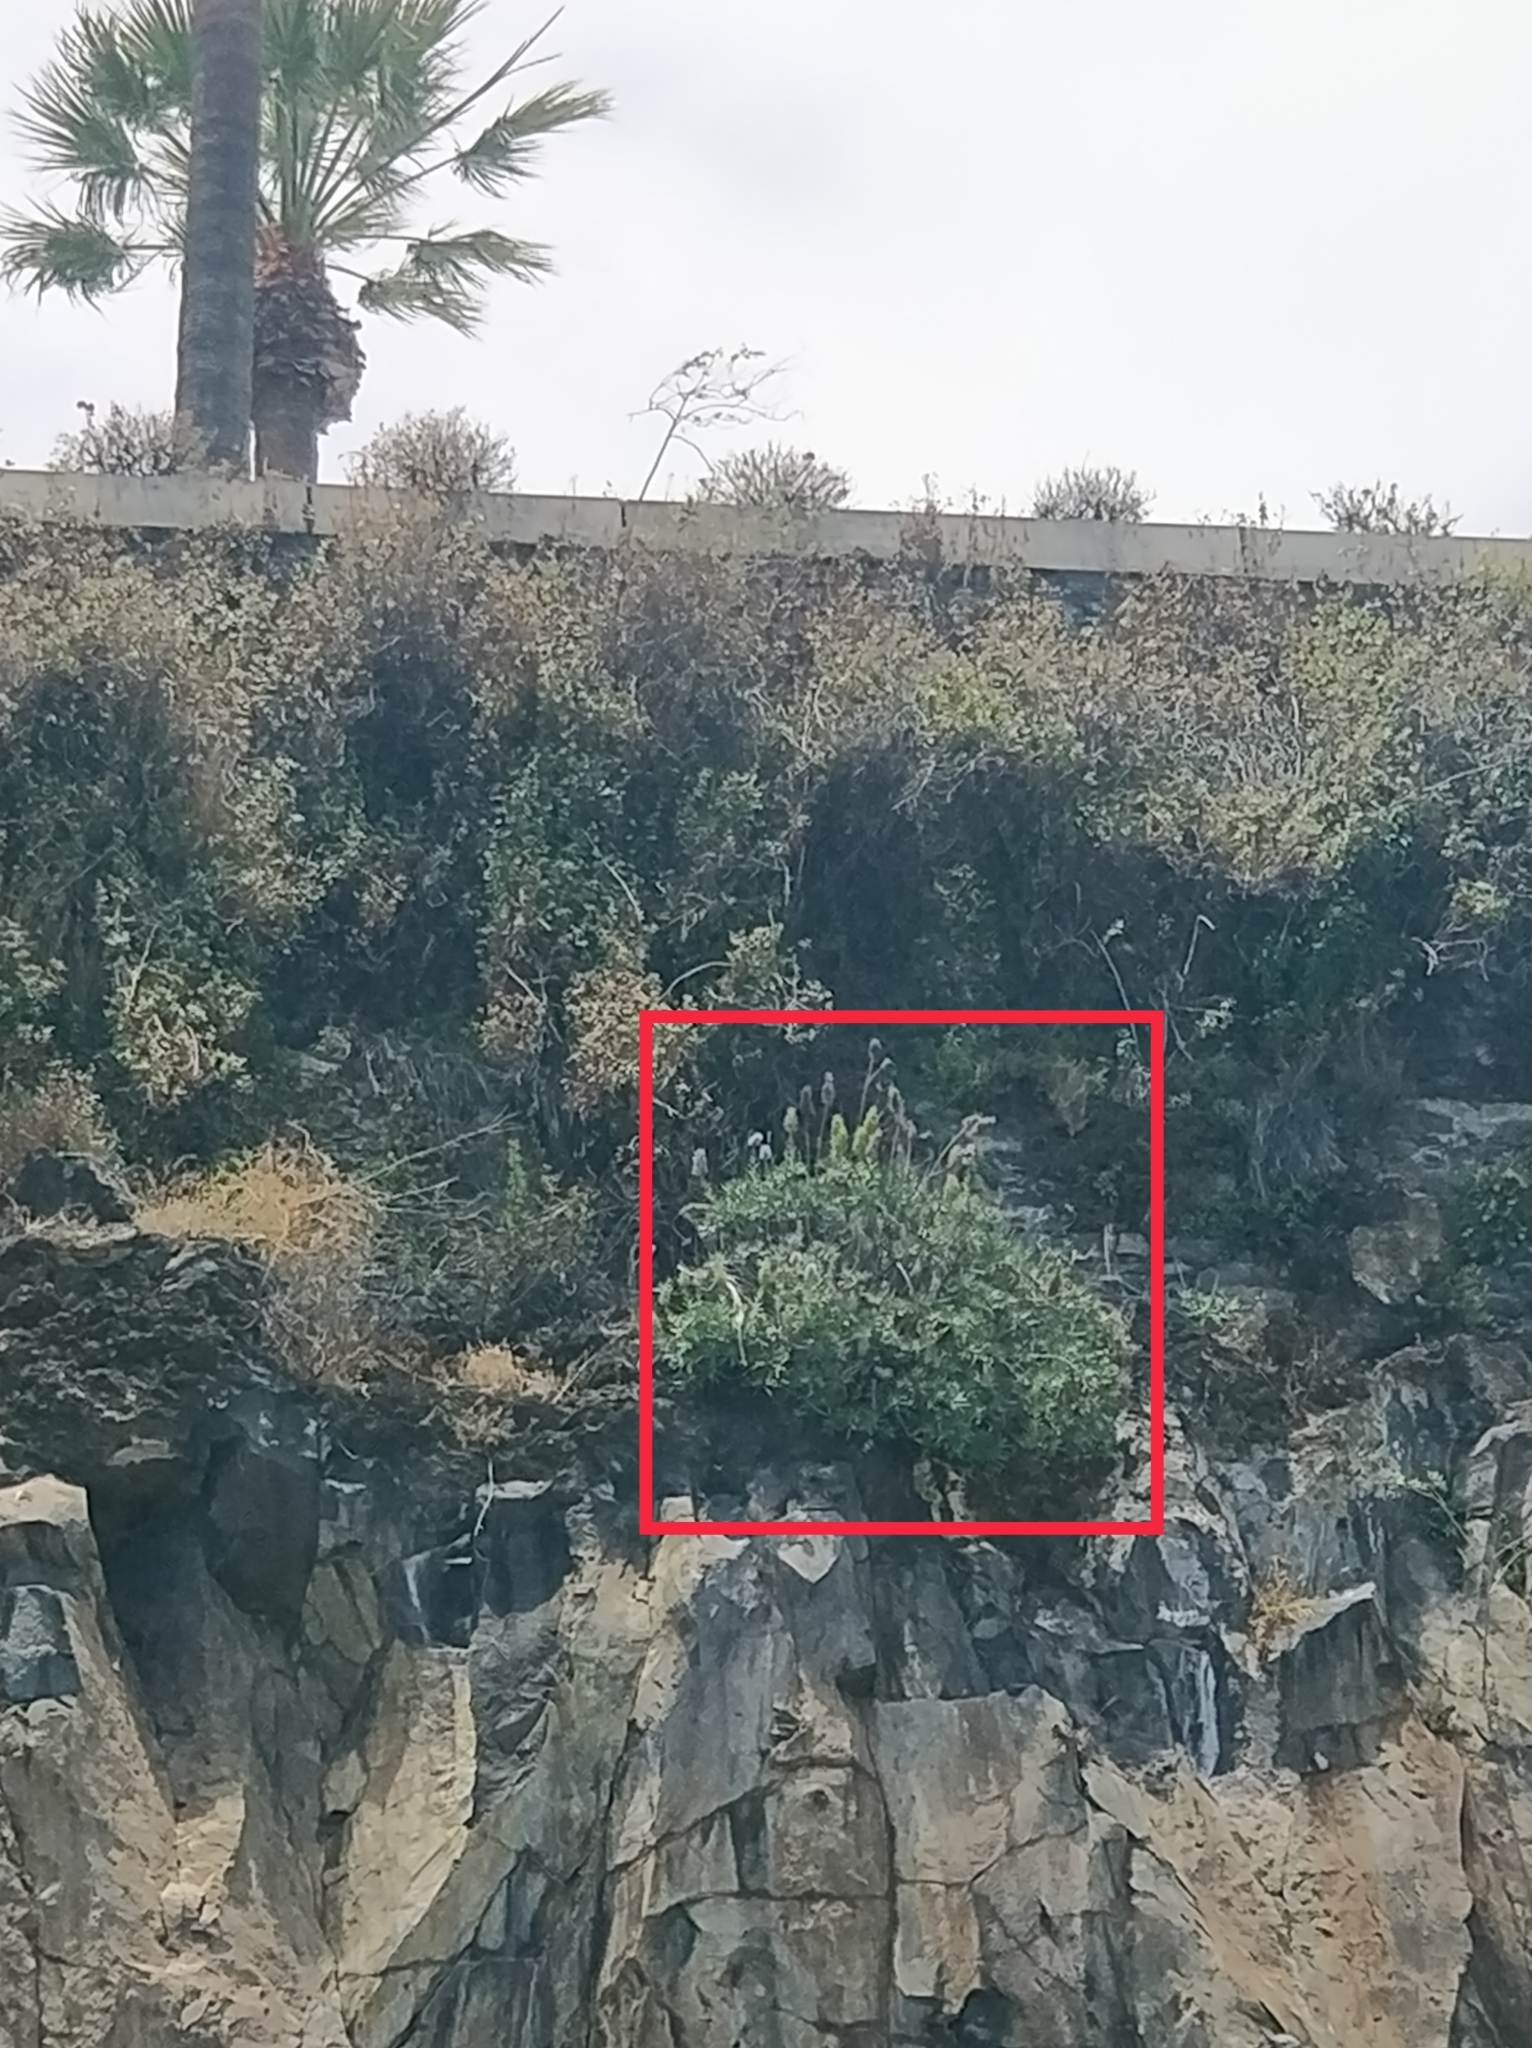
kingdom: Plantae
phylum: Tracheophyta
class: Magnoliopsida
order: Boraginales
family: Boraginaceae
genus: Echium
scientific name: Echium nervosum
